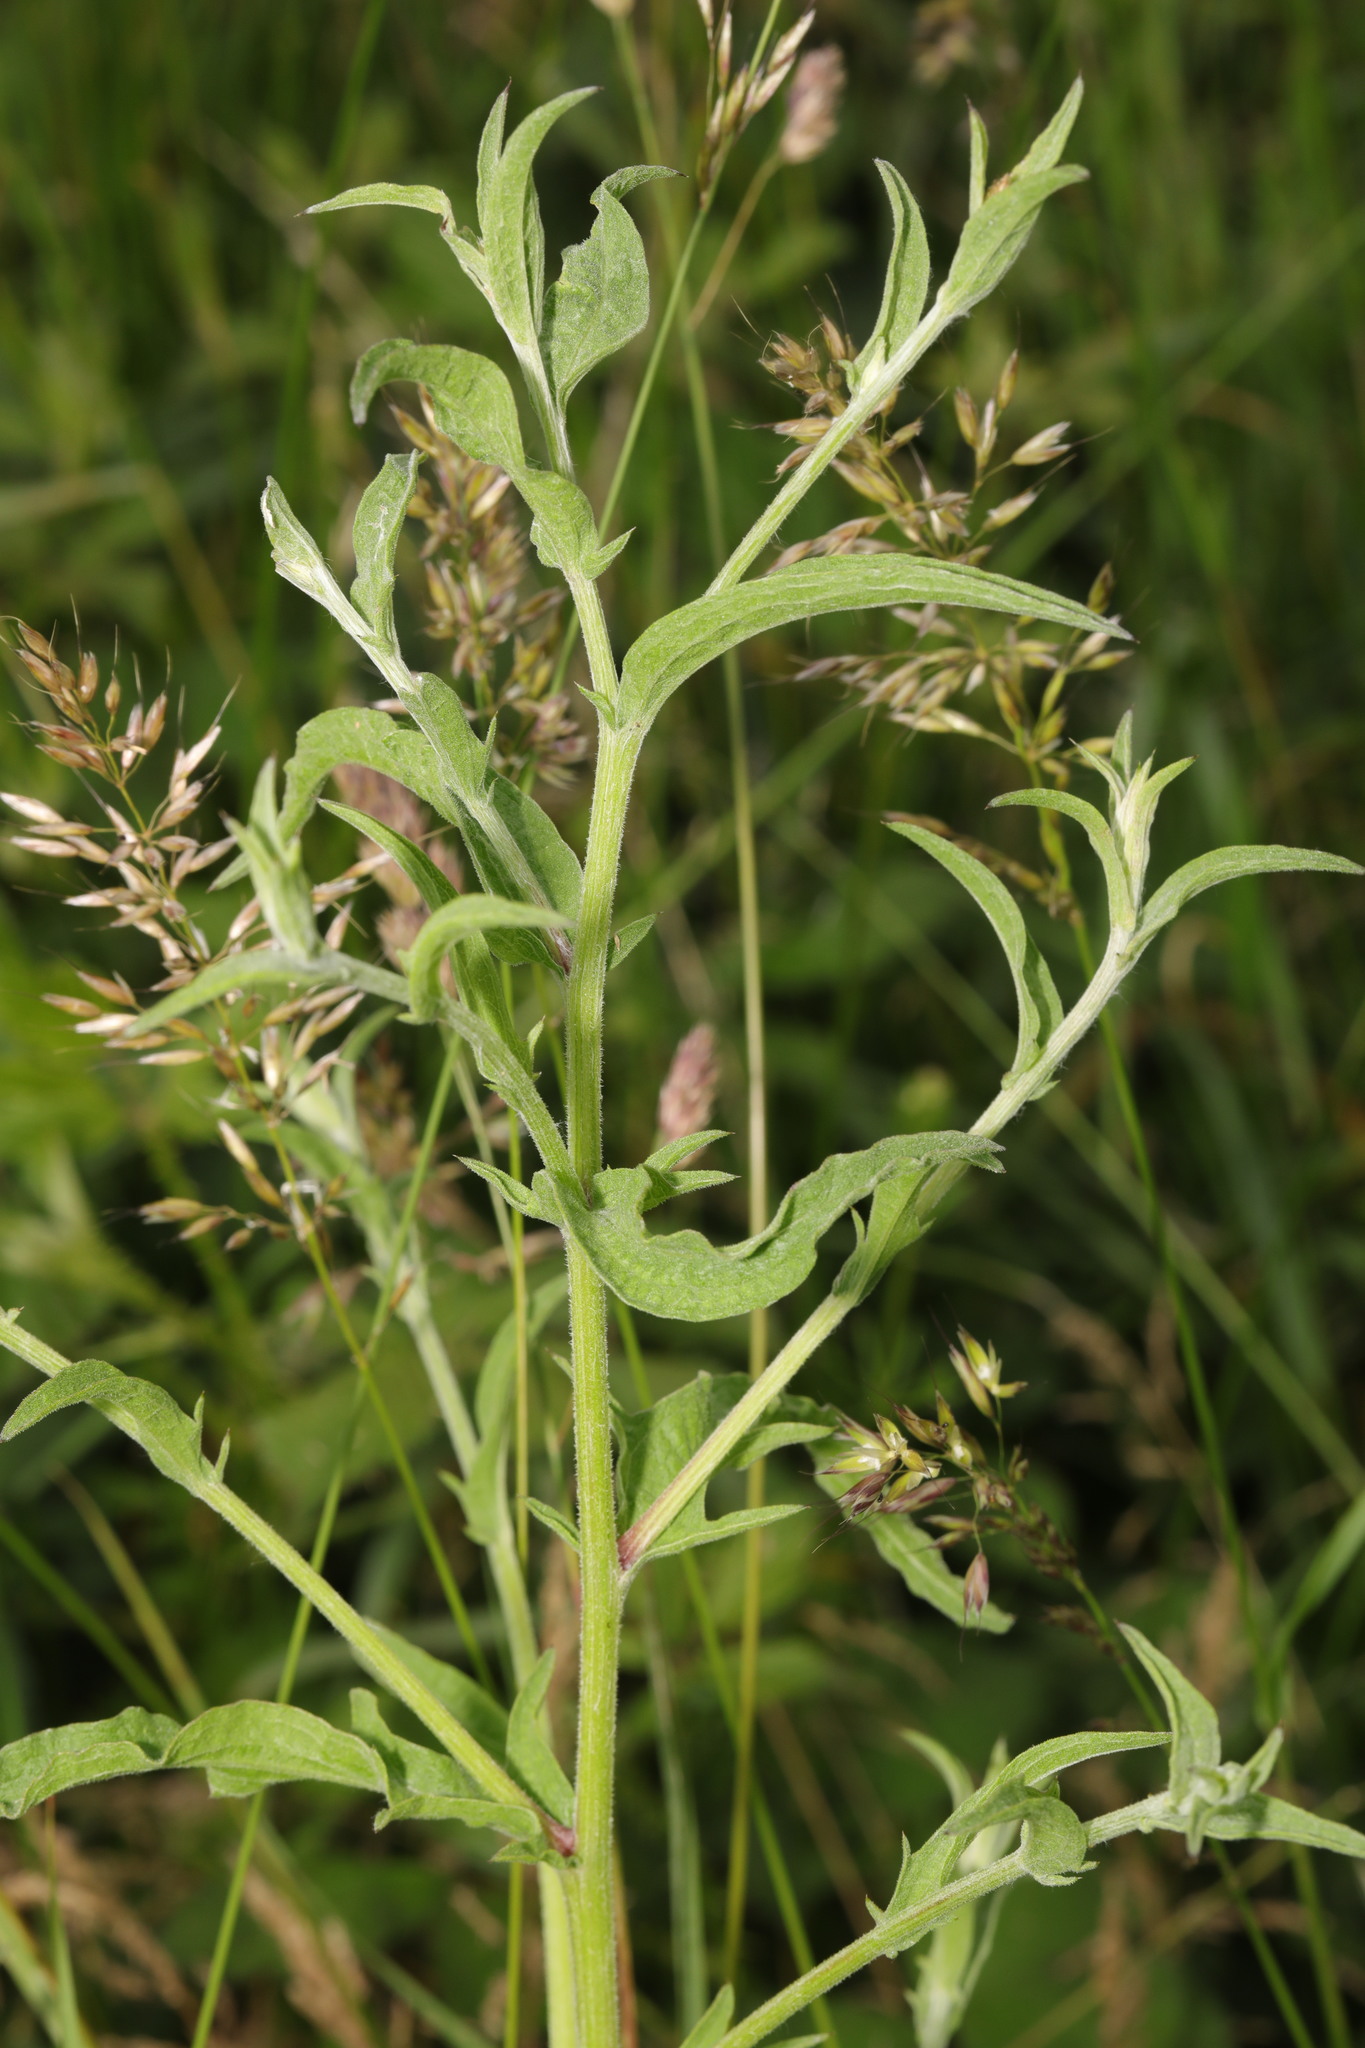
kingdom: Plantae
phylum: Tracheophyta
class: Magnoliopsida
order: Asterales
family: Asteraceae
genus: Centaurea
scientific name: Centaurea nigra
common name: Lesser knapweed
